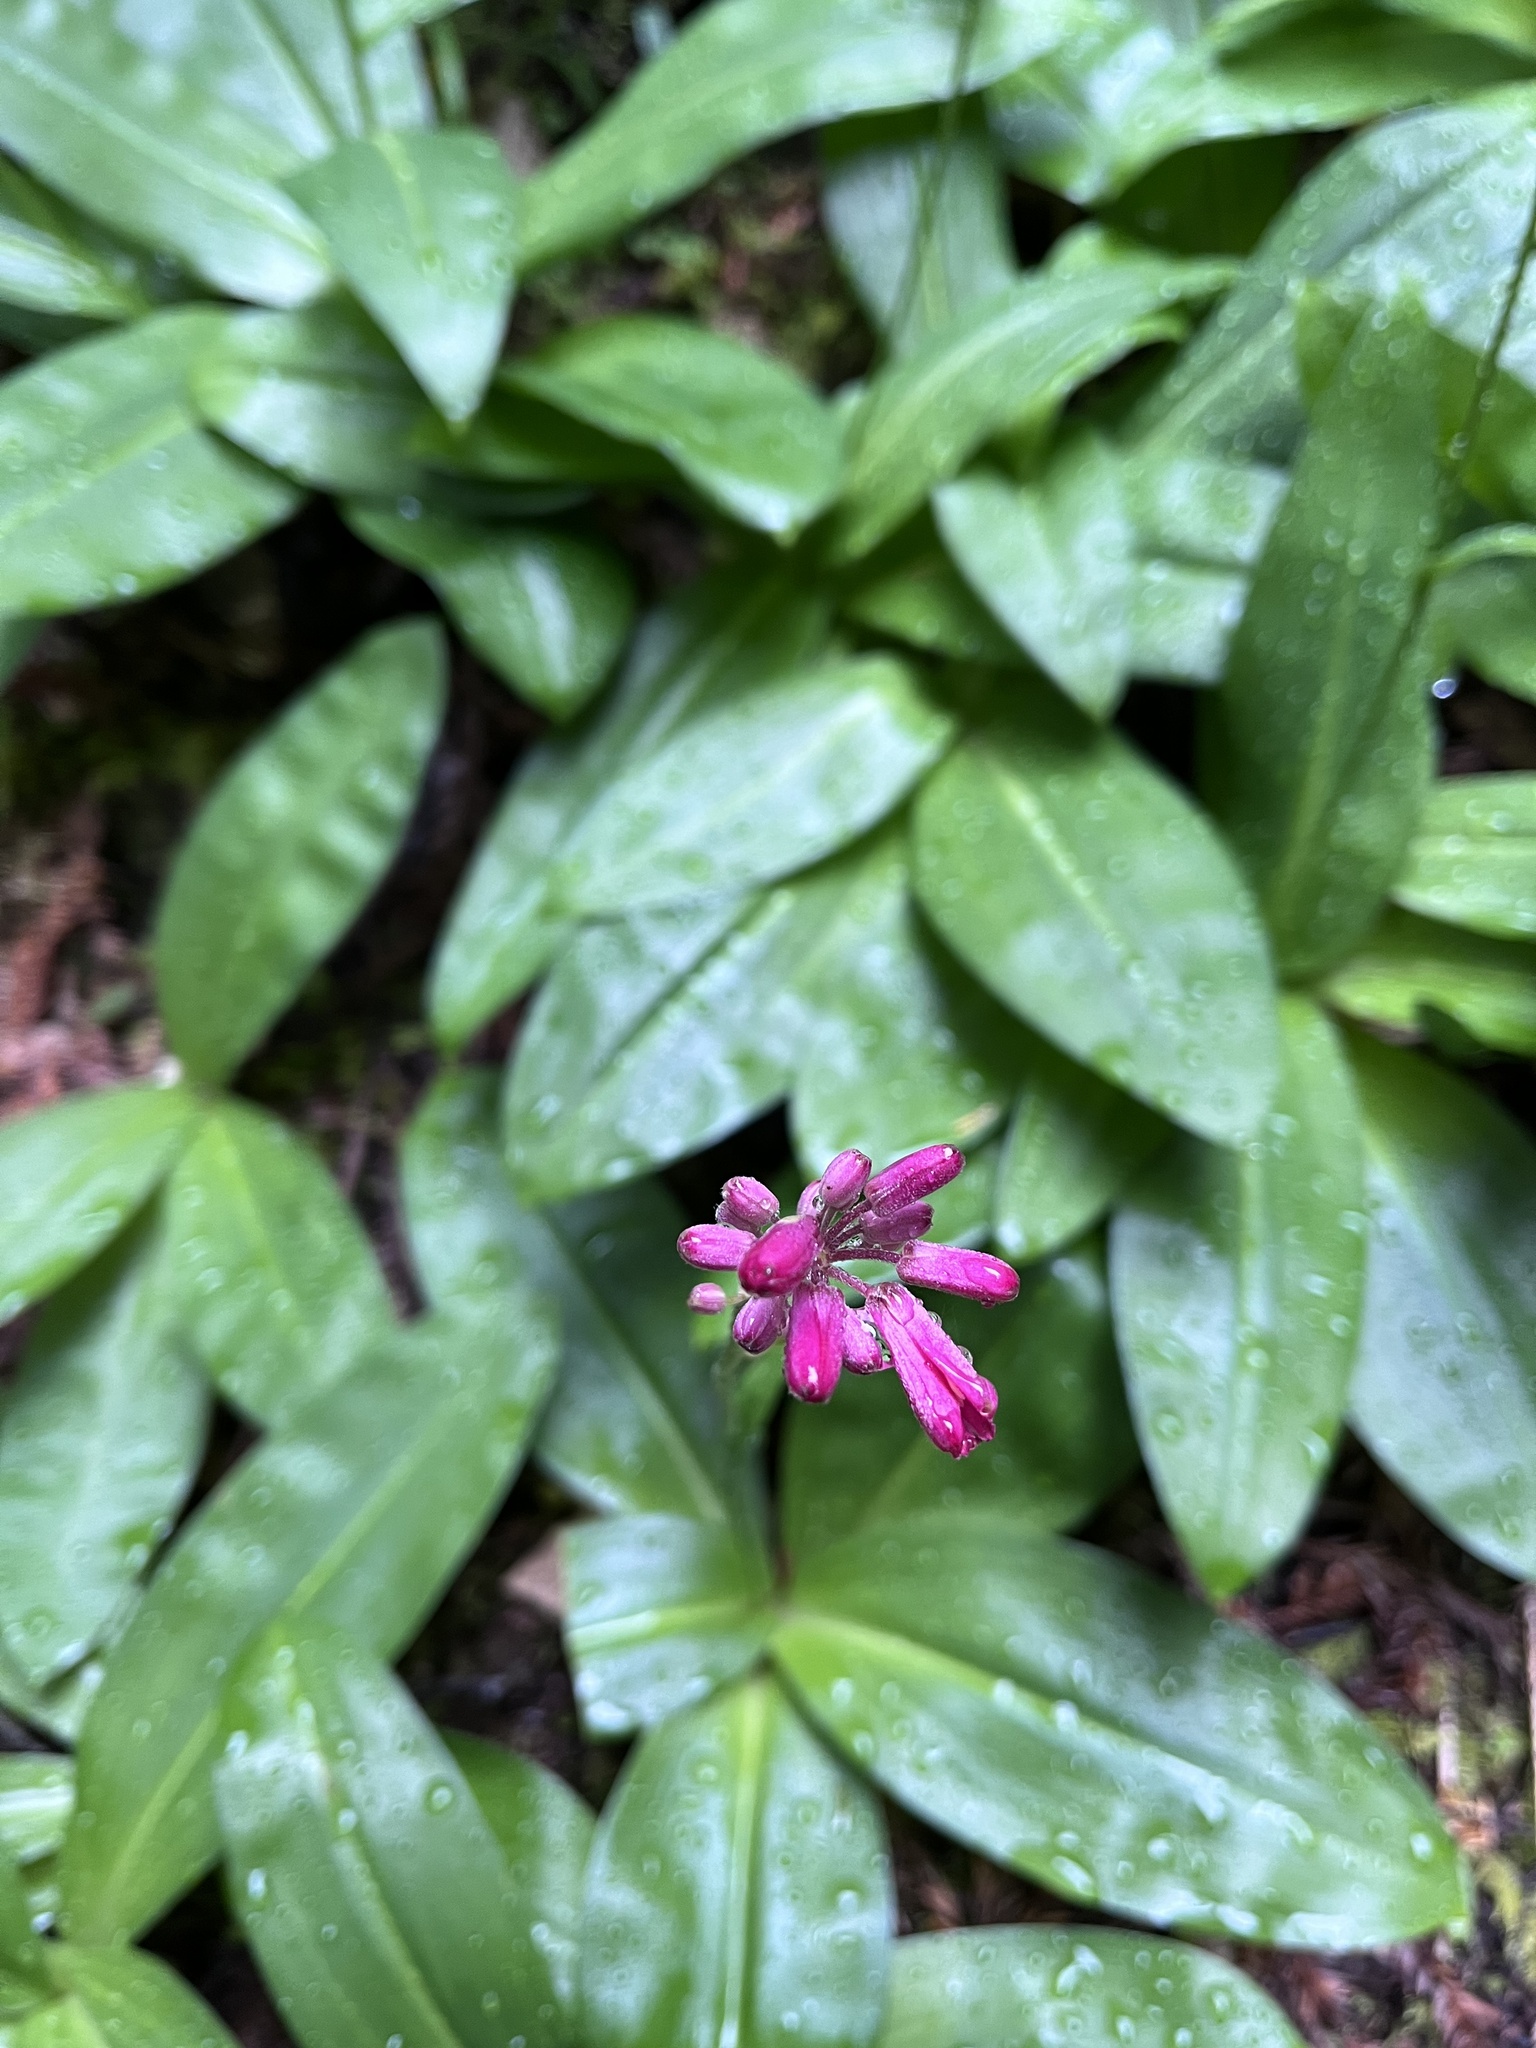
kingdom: Plantae
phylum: Tracheophyta
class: Liliopsida
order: Liliales
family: Liliaceae
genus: Clintonia
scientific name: Clintonia andrewsiana
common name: Red clintonia
